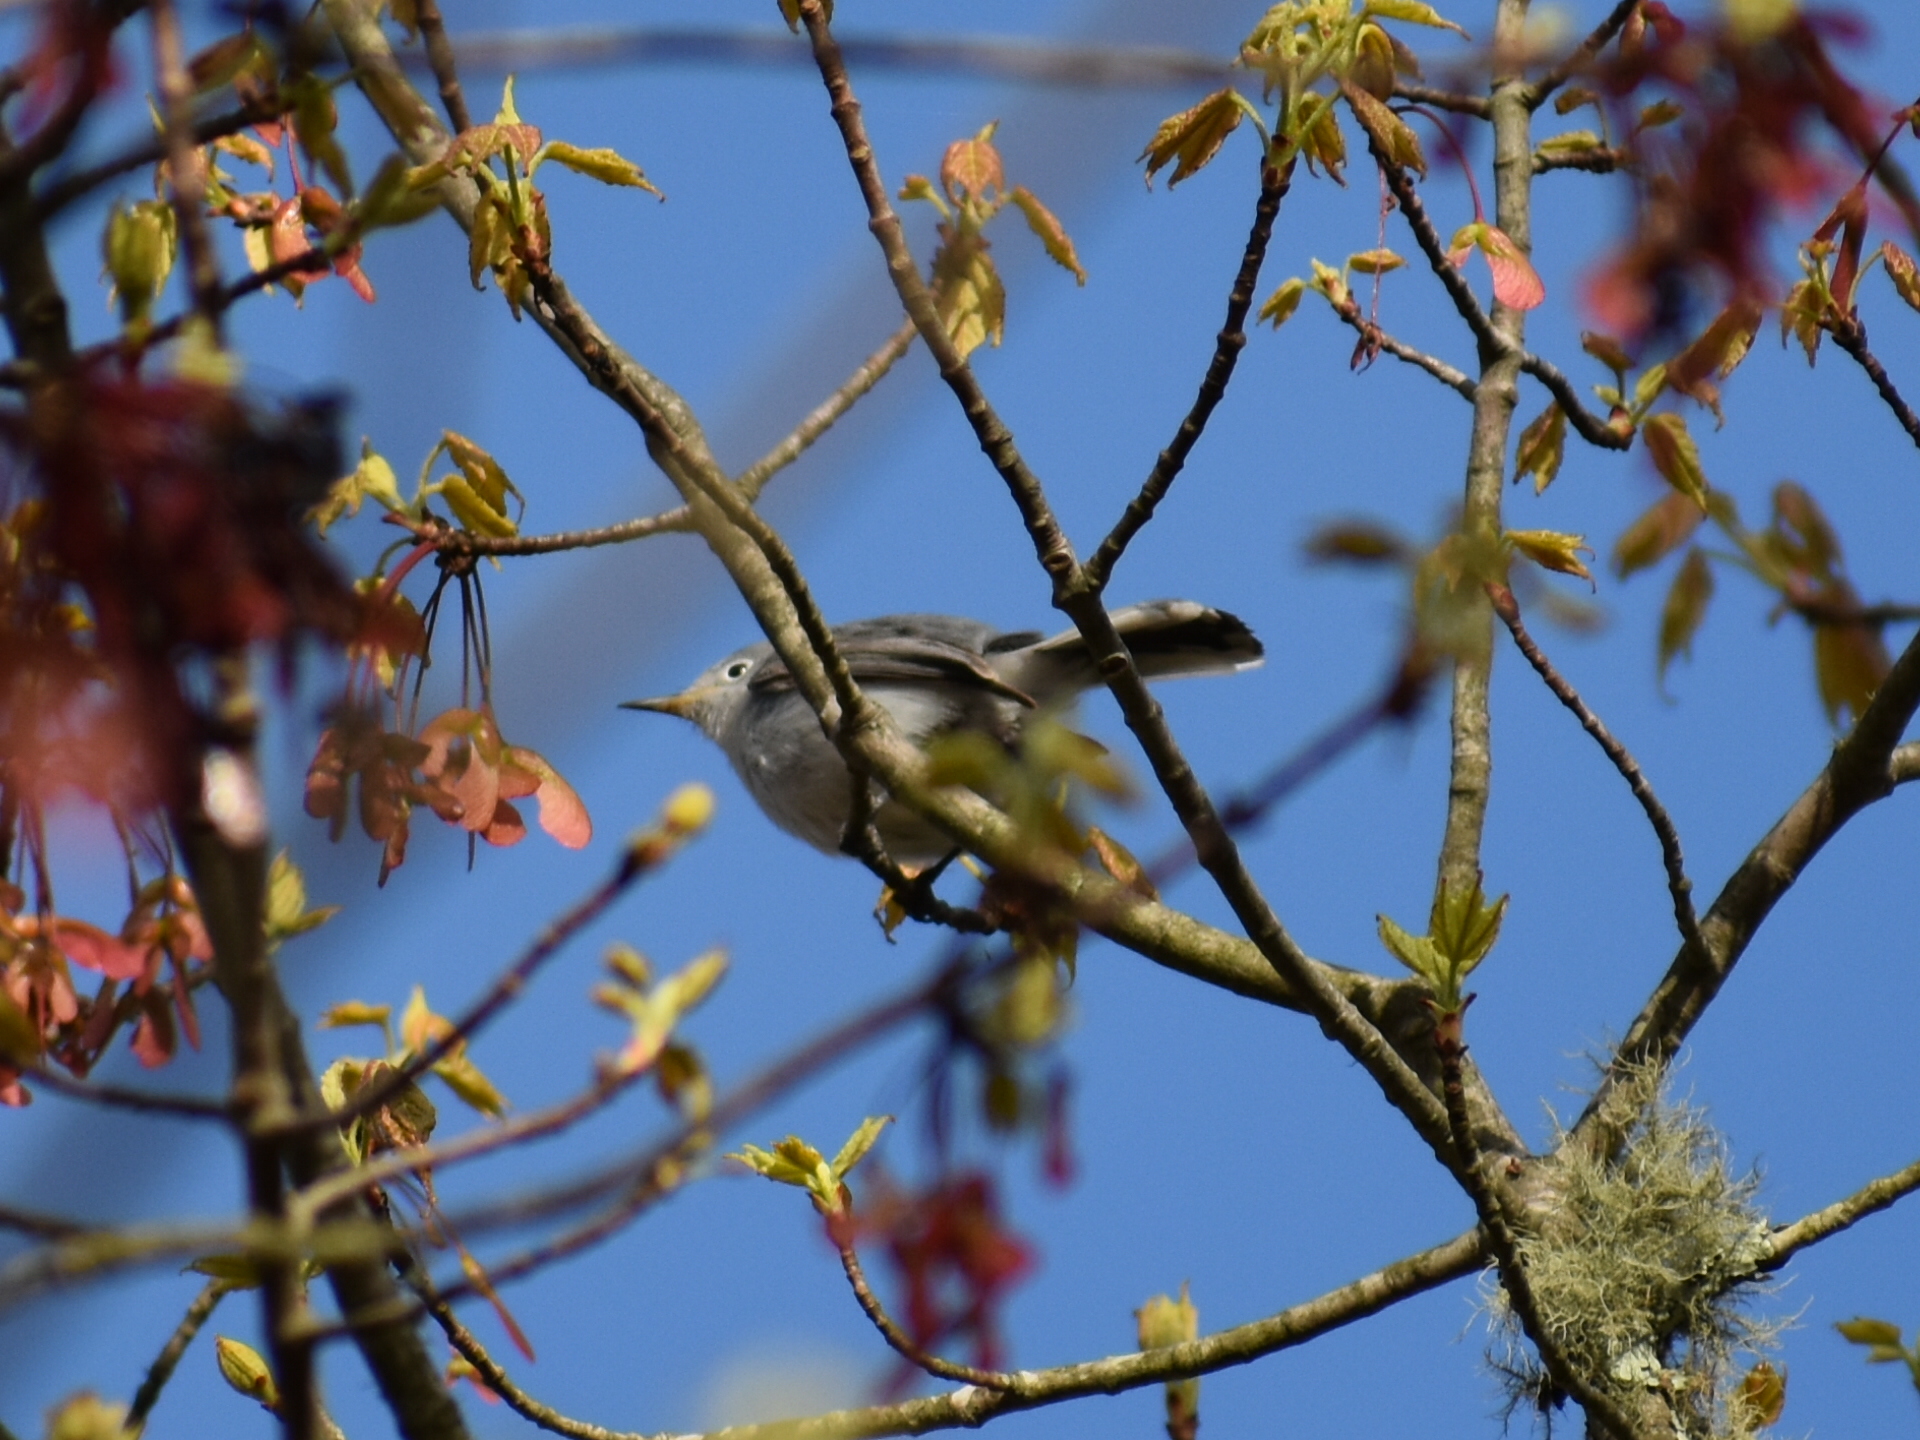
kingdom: Animalia
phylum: Chordata
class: Aves
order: Passeriformes
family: Polioptilidae
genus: Polioptila
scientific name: Polioptila caerulea
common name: Blue-gray gnatcatcher
